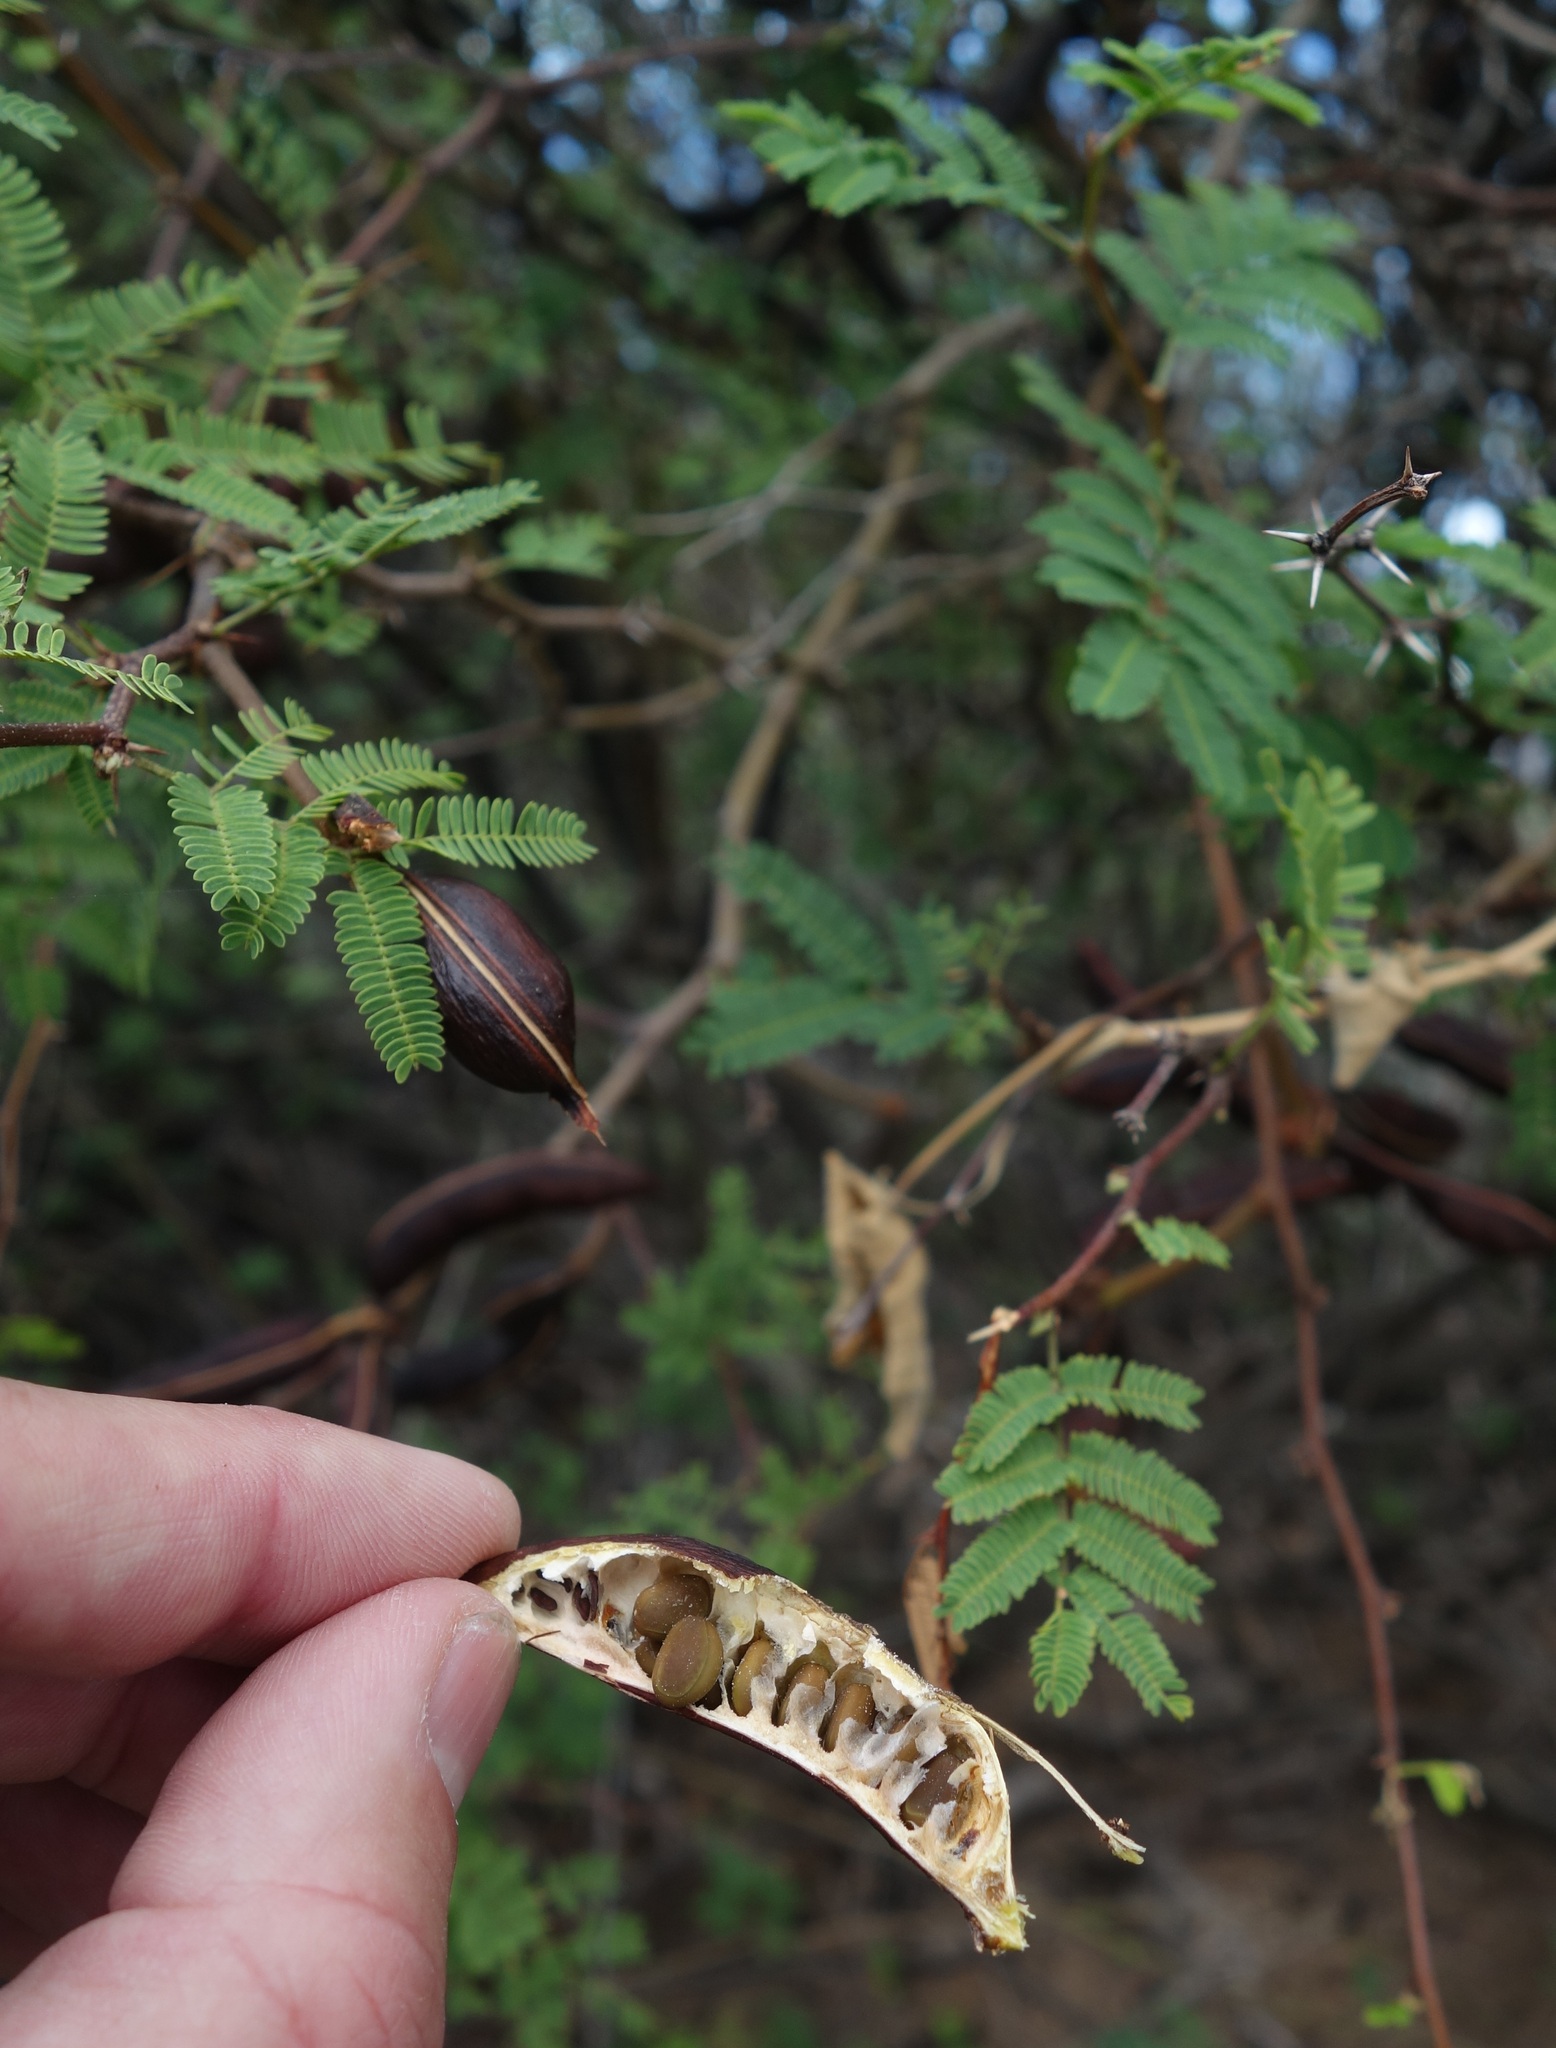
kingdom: Plantae
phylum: Tracheophyta
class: Magnoliopsida
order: Fabales
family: Fabaceae
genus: Vachellia
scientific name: Vachellia farnesiana
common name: Sweet acacia
